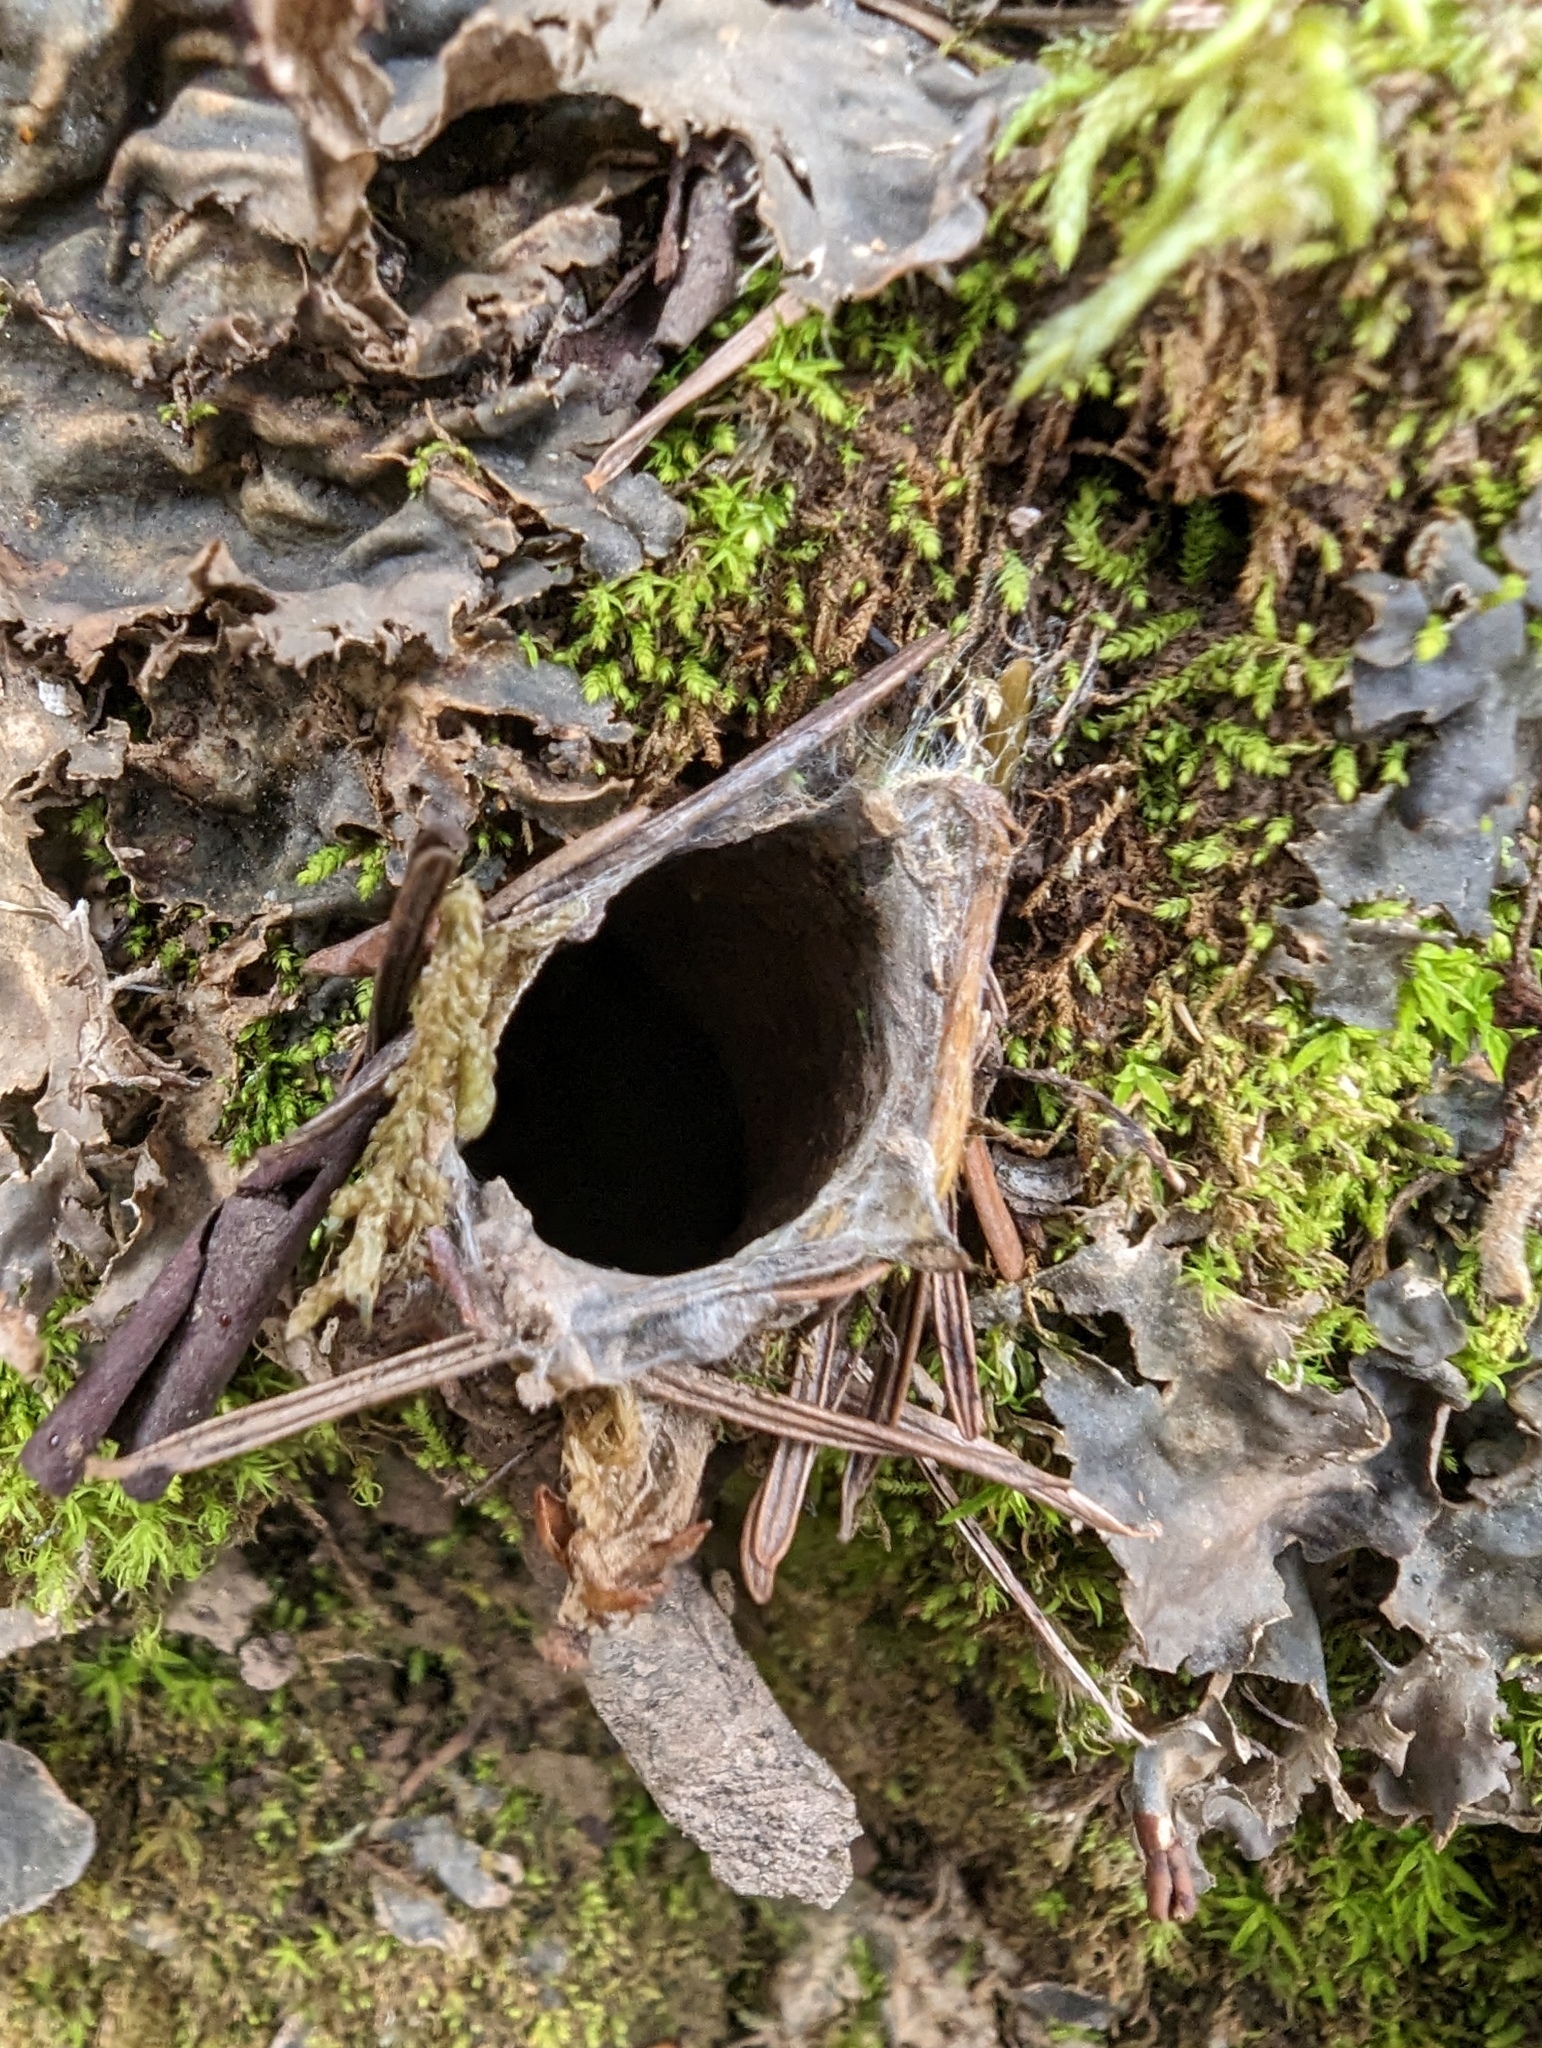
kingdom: Animalia
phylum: Arthropoda
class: Arachnida
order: Araneae
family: Antrodiaetidae
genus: Atypoides
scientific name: Atypoides riversi
